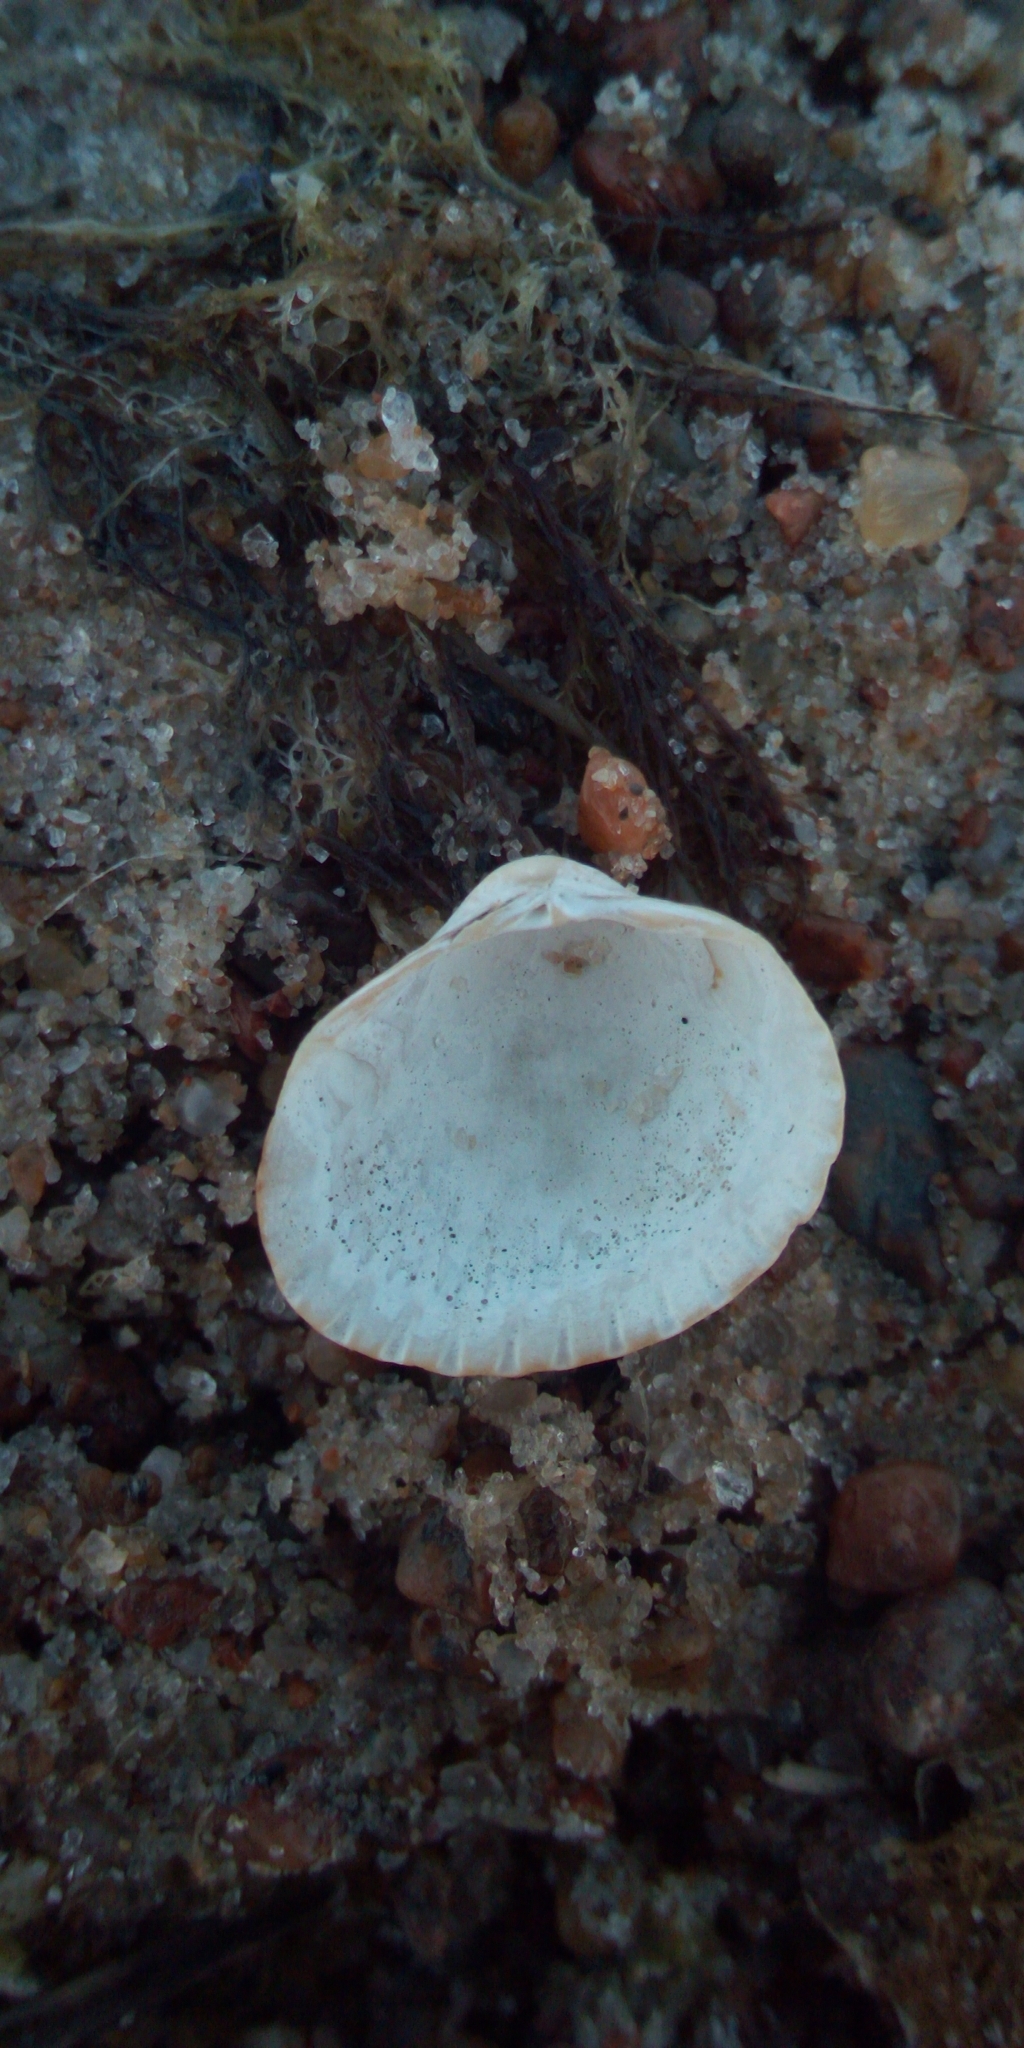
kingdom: Animalia
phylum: Mollusca
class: Bivalvia
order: Cardiida
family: Cardiidae
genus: Cerastoderma
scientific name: Cerastoderma glaucum
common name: Lagoon cockle
